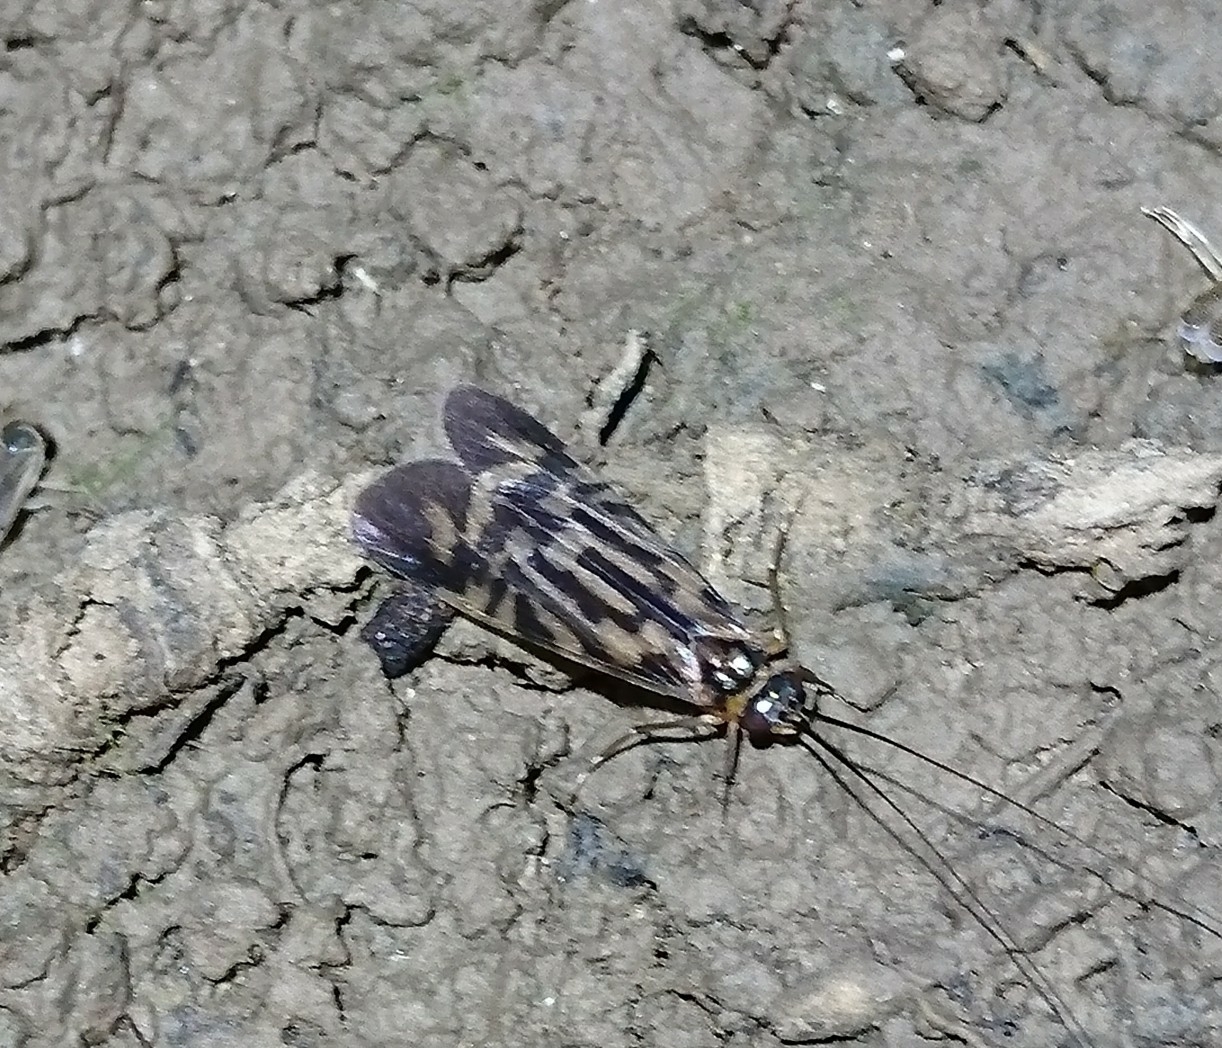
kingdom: Animalia
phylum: Arthropoda
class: Insecta
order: Trichoptera
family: Hydropsychidae
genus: Macrostemum
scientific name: Macrostemum carolina
